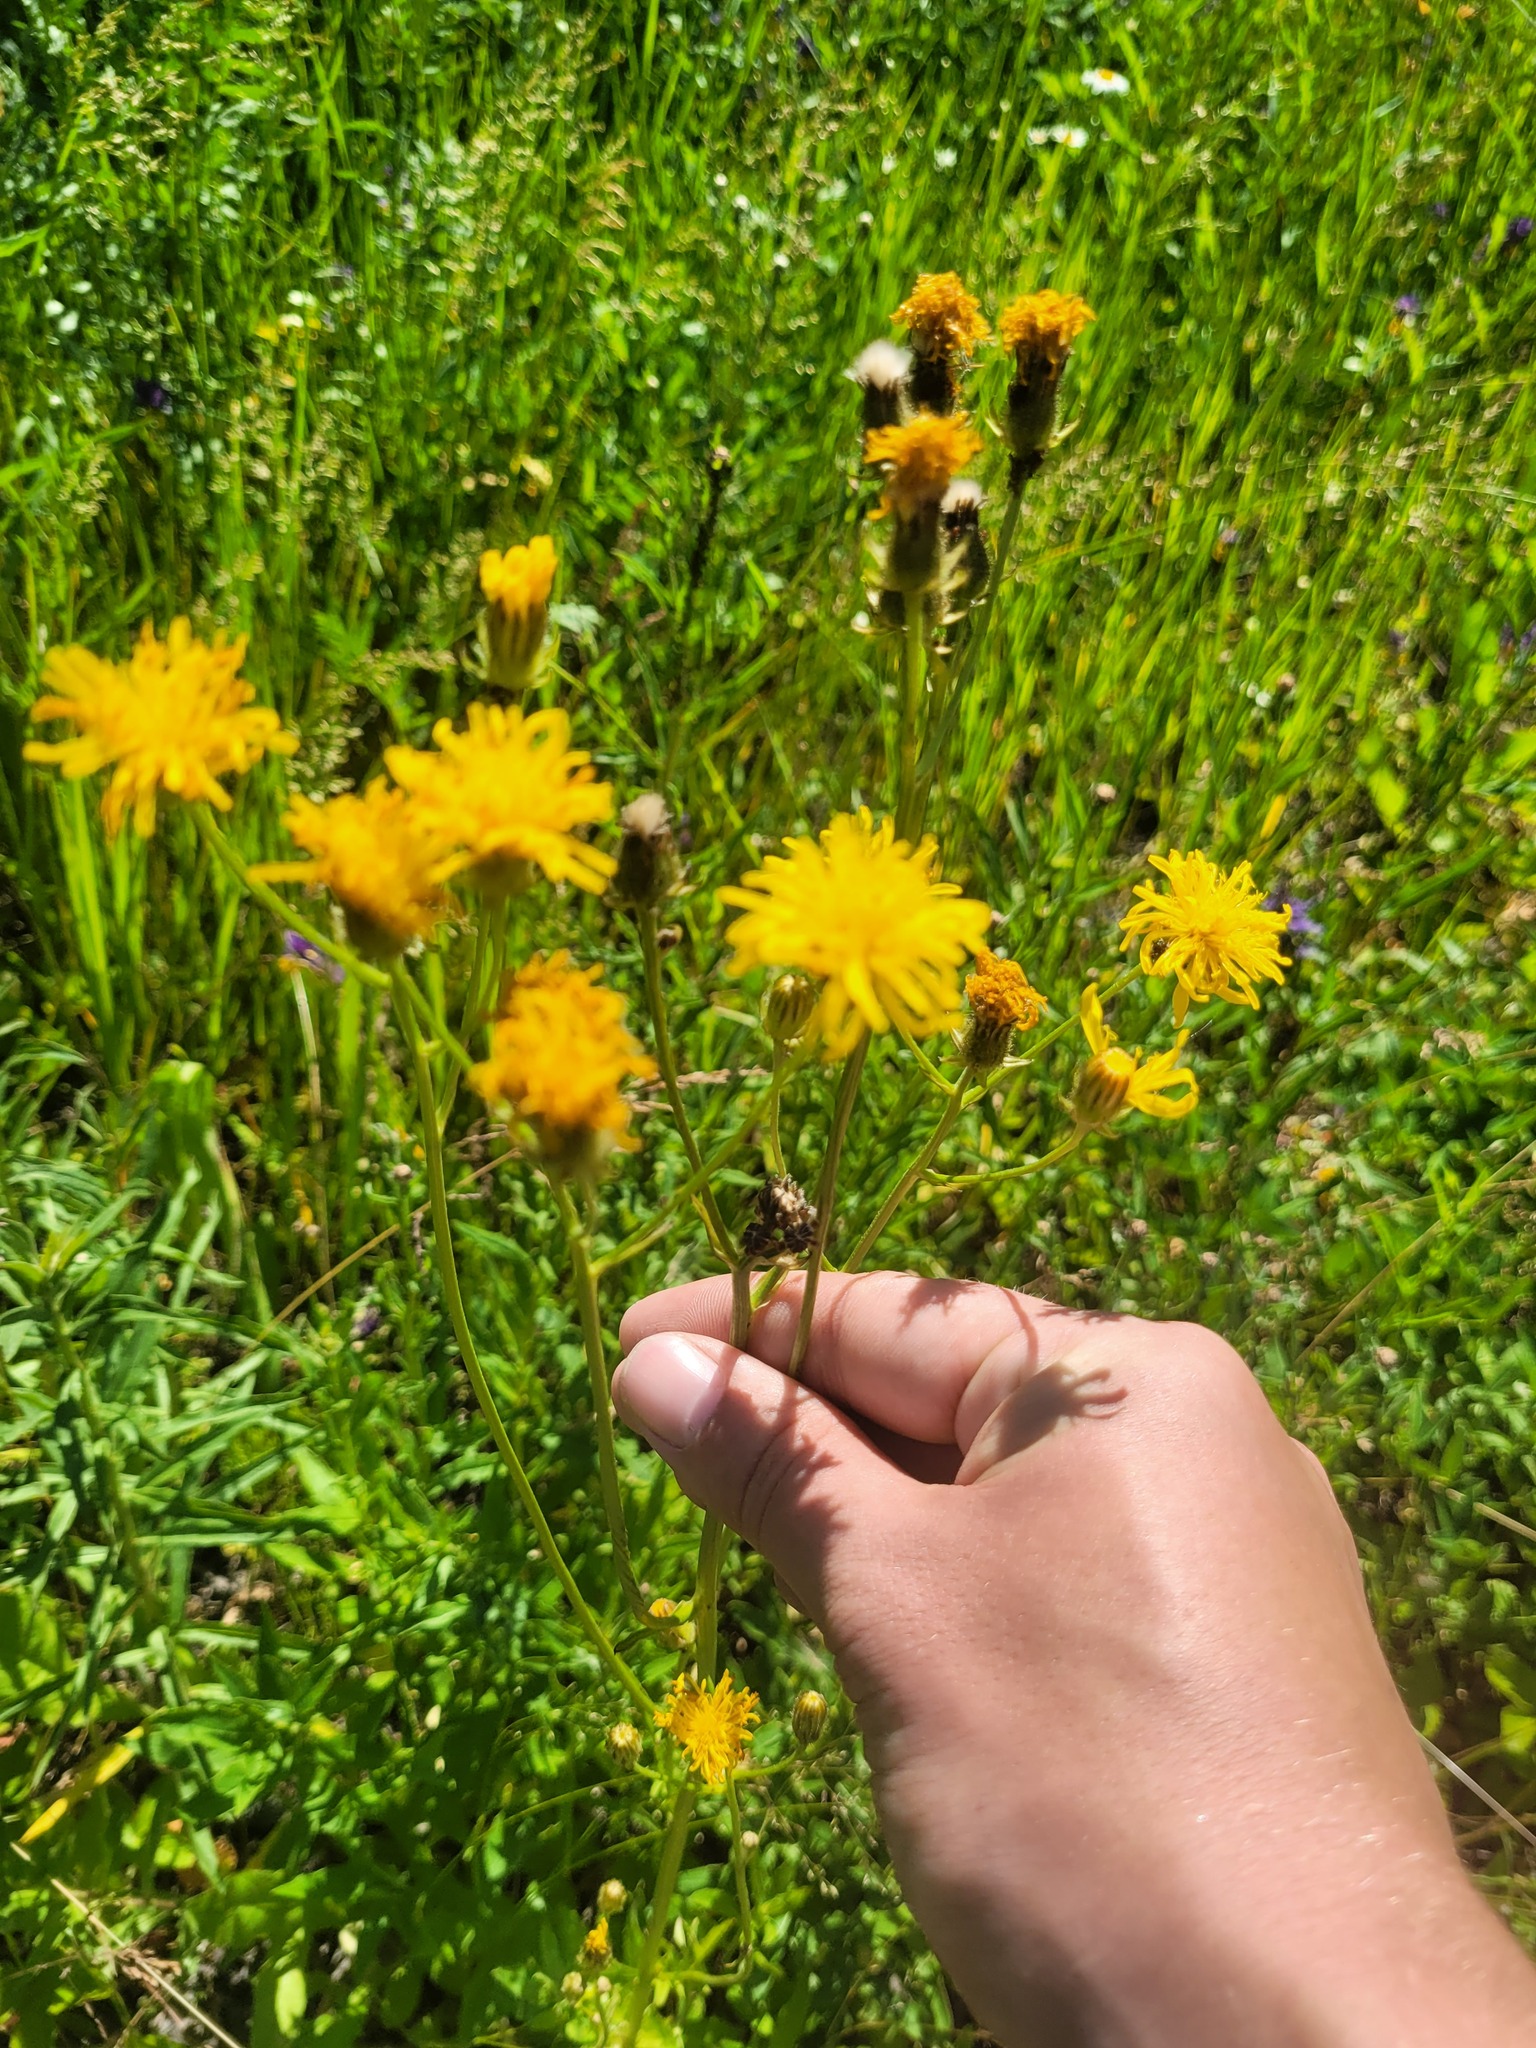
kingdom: Plantae
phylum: Tracheophyta
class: Magnoliopsida
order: Asterales
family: Asteraceae
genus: Crepis
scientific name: Crepis biennis
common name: Rough hawk's-beard
